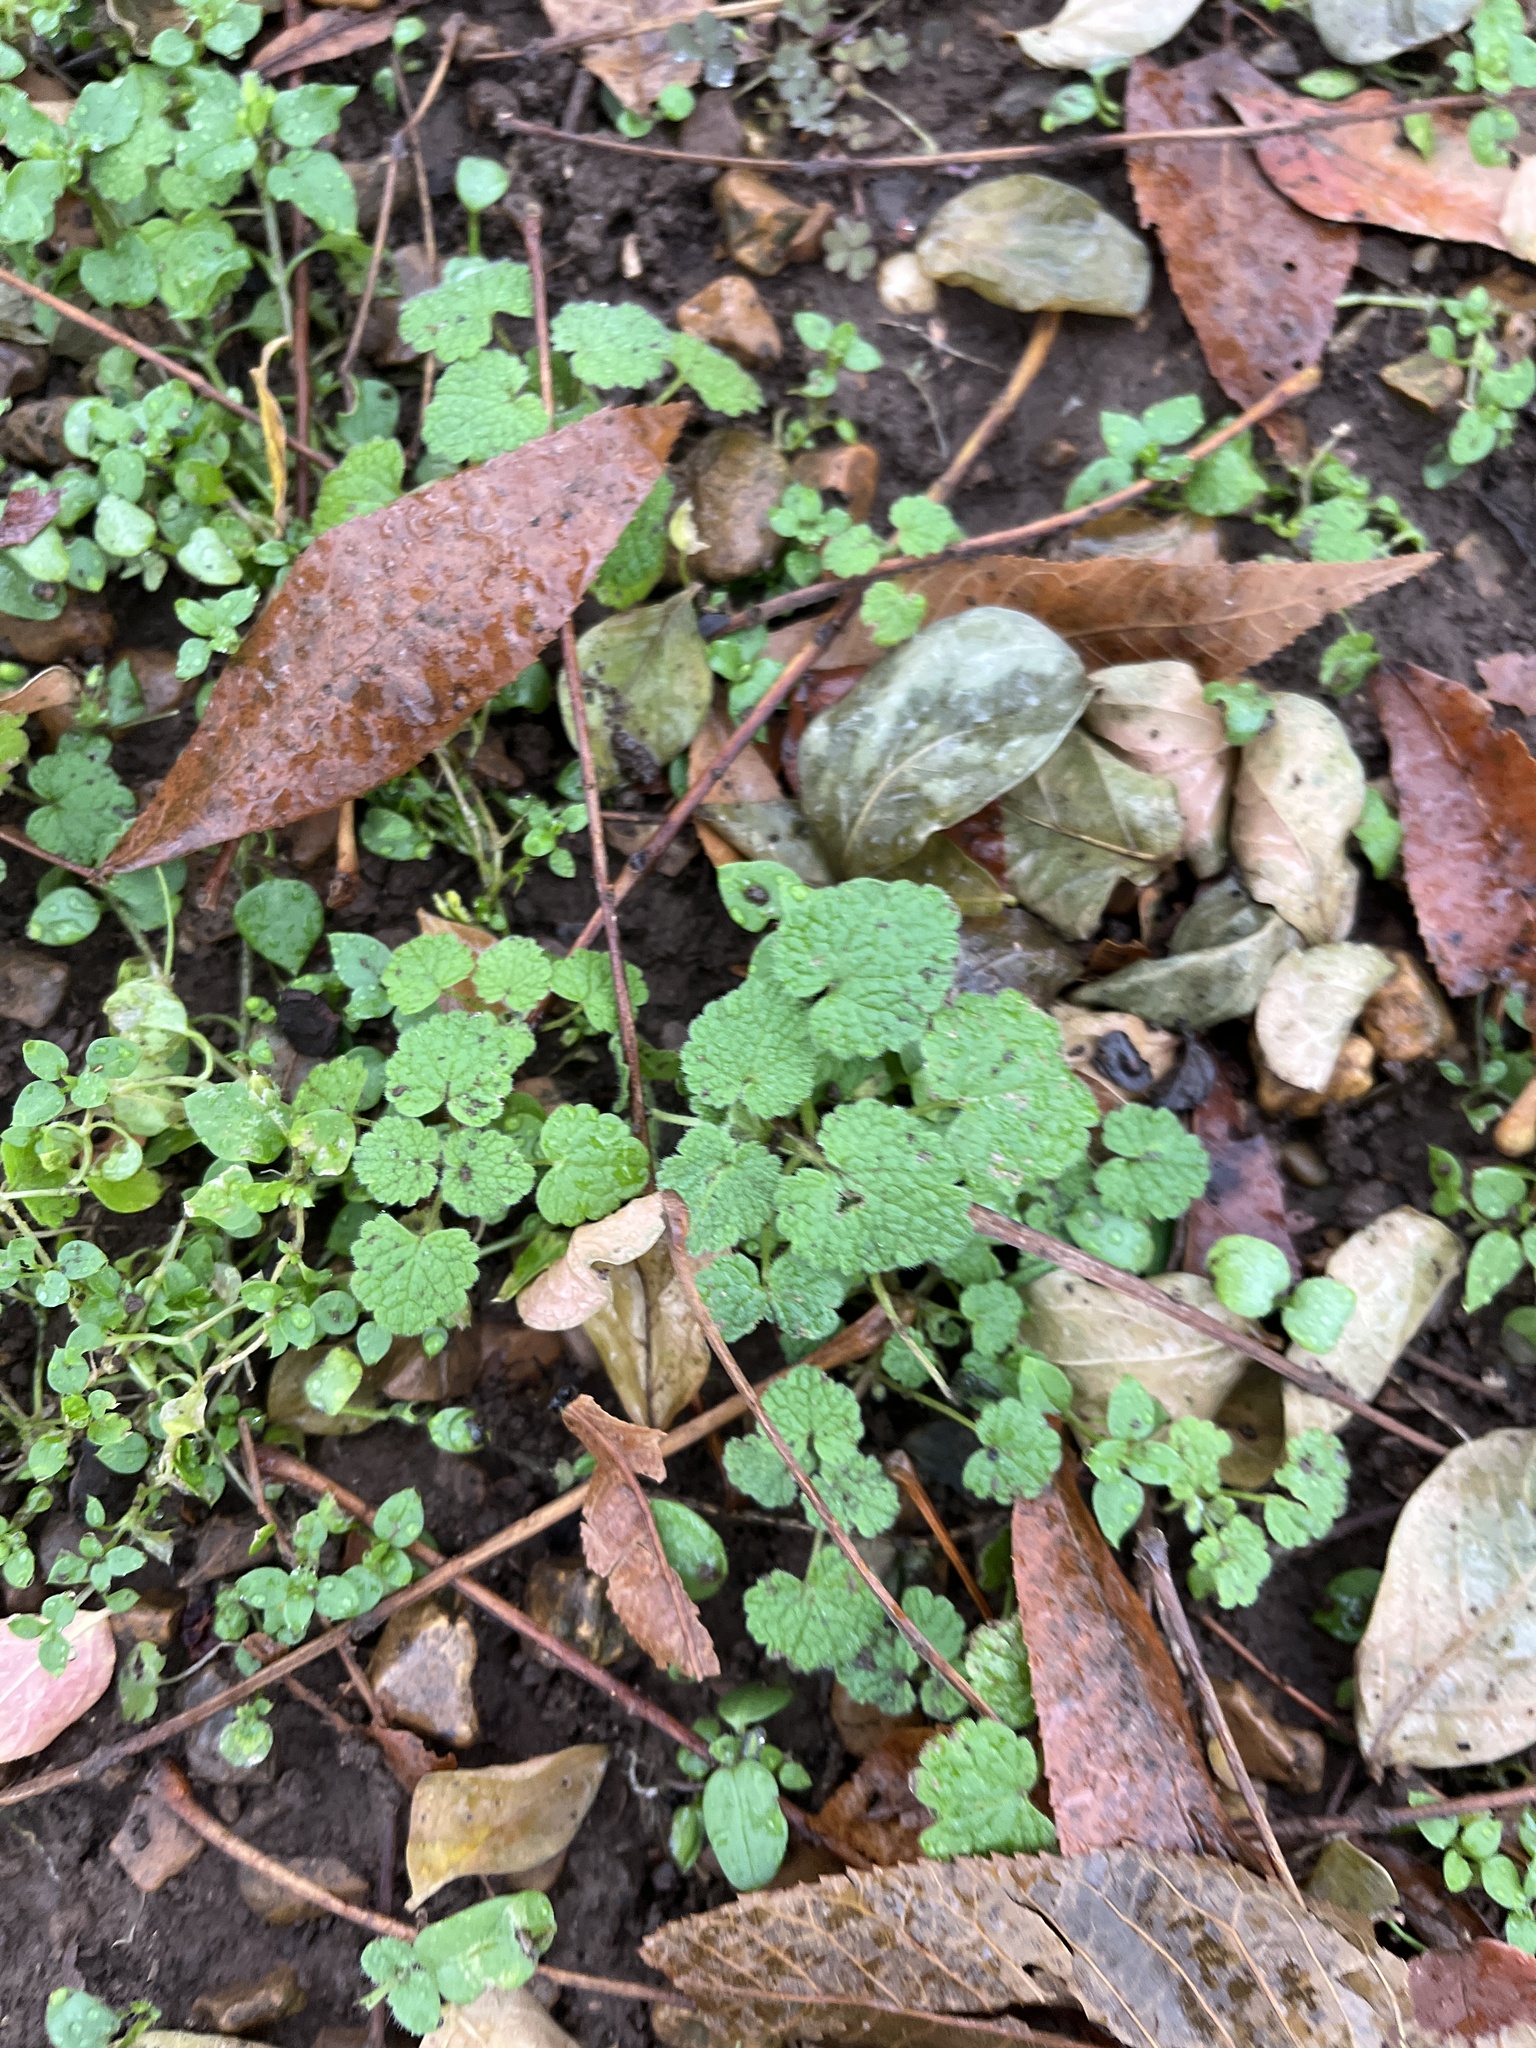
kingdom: Plantae
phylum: Tracheophyta
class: Magnoliopsida
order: Lamiales
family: Lamiaceae
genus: Lamium
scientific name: Lamium purpureum
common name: Red dead-nettle
